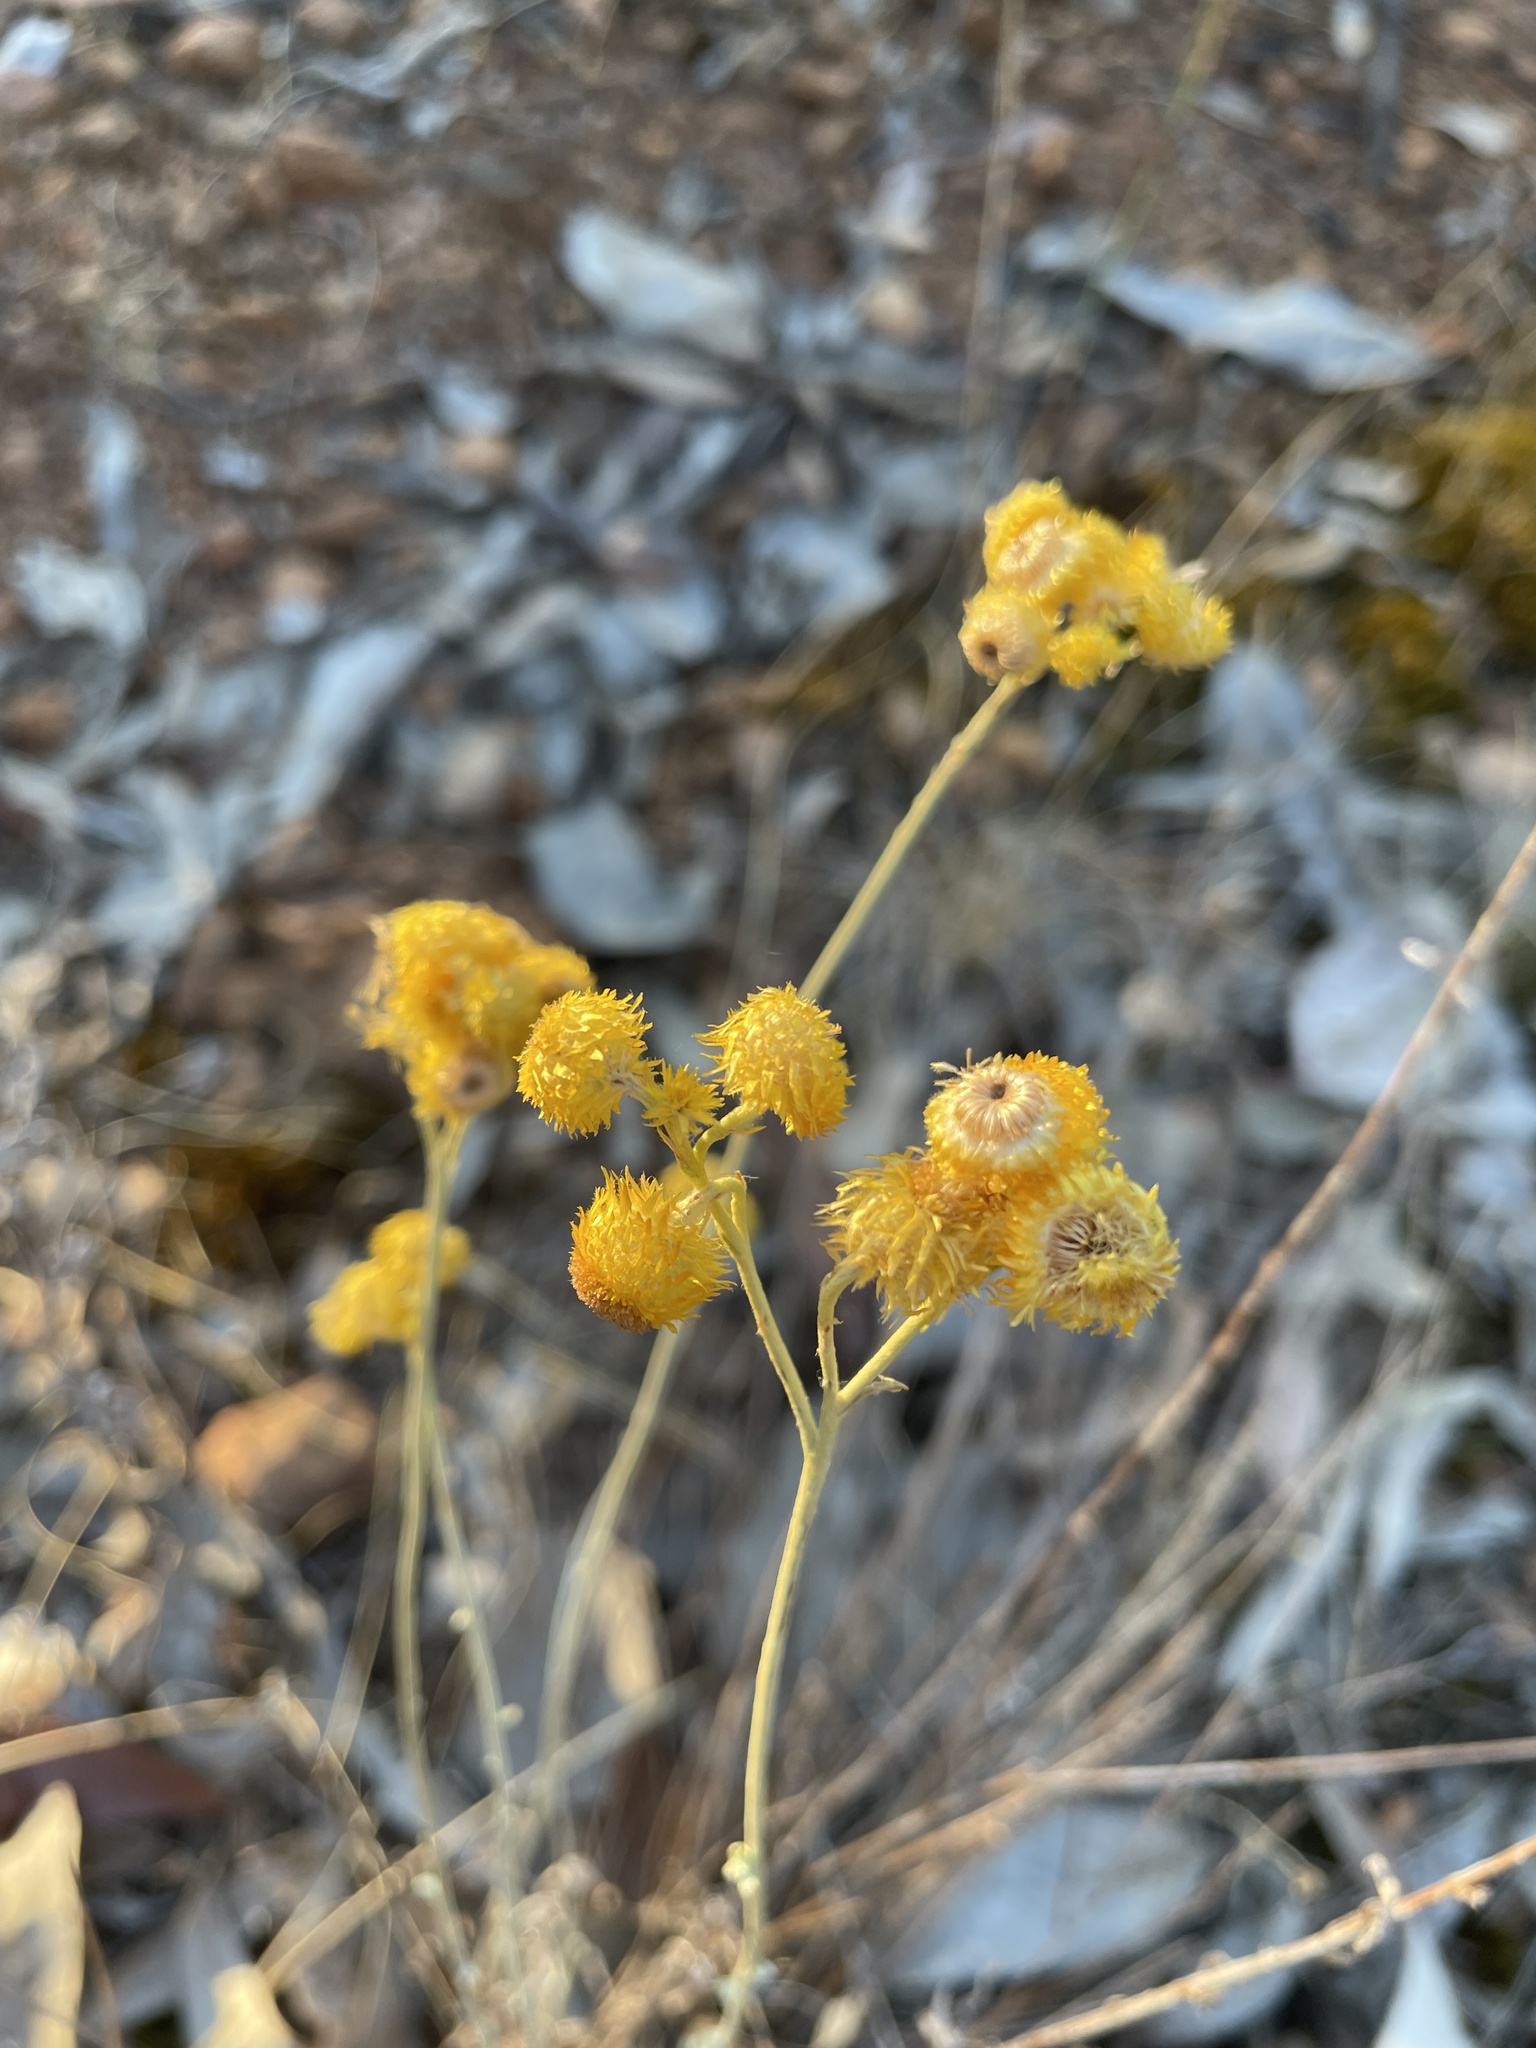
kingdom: Plantae
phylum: Tracheophyta
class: Magnoliopsida
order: Asterales
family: Asteraceae
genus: Chrysocephalum
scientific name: Chrysocephalum apiculatum
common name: Common everlasting
